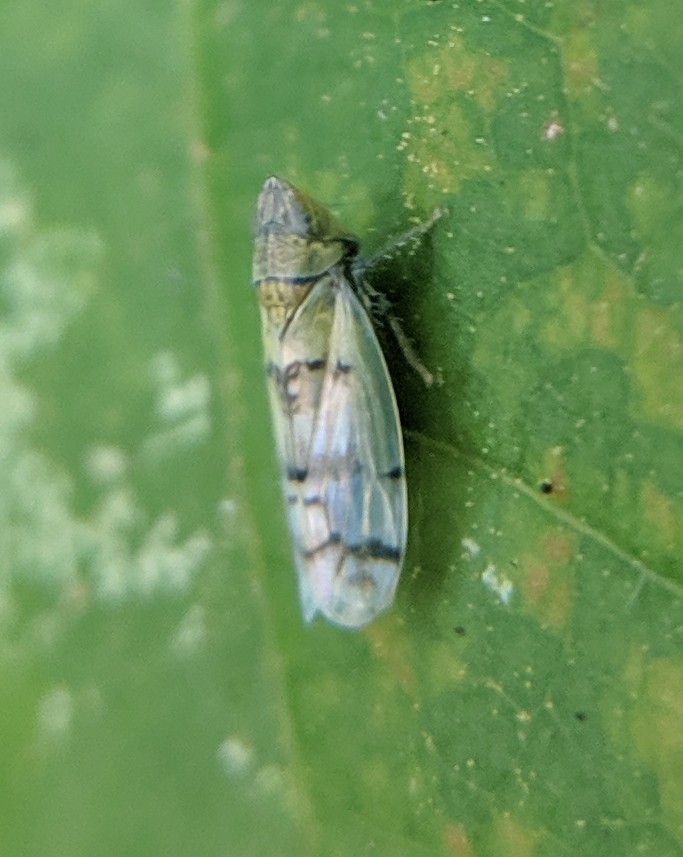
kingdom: Animalia
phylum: Arthropoda
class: Insecta
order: Hemiptera
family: Cicadellidae
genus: Japananus
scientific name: Japananus hyalinus
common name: The japanese maple leafhopper
